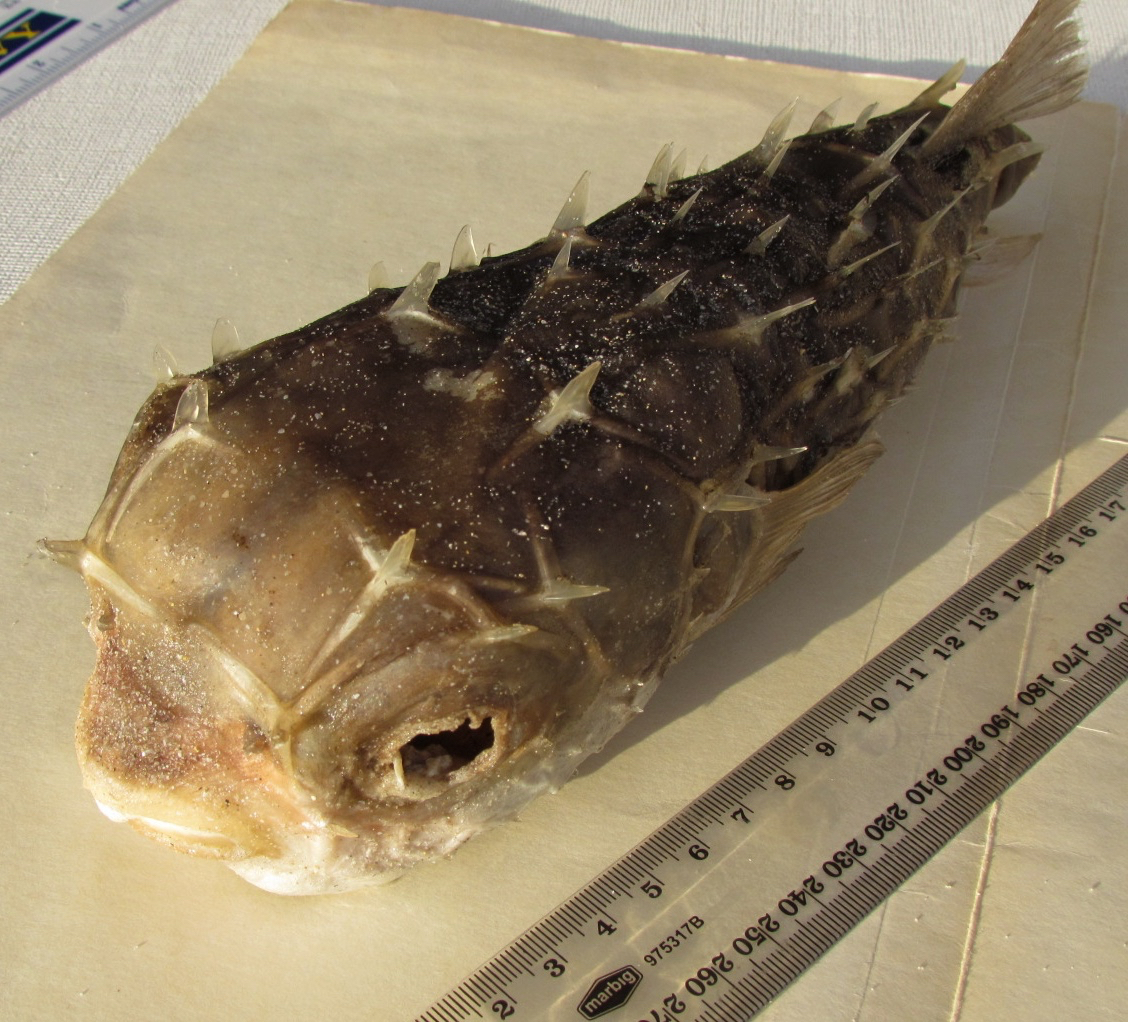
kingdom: Animalia
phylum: Chordata
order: Tetraodontiformes
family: Diodontidae
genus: Allomycterus
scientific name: Allomycterus pilatus
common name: No common name
